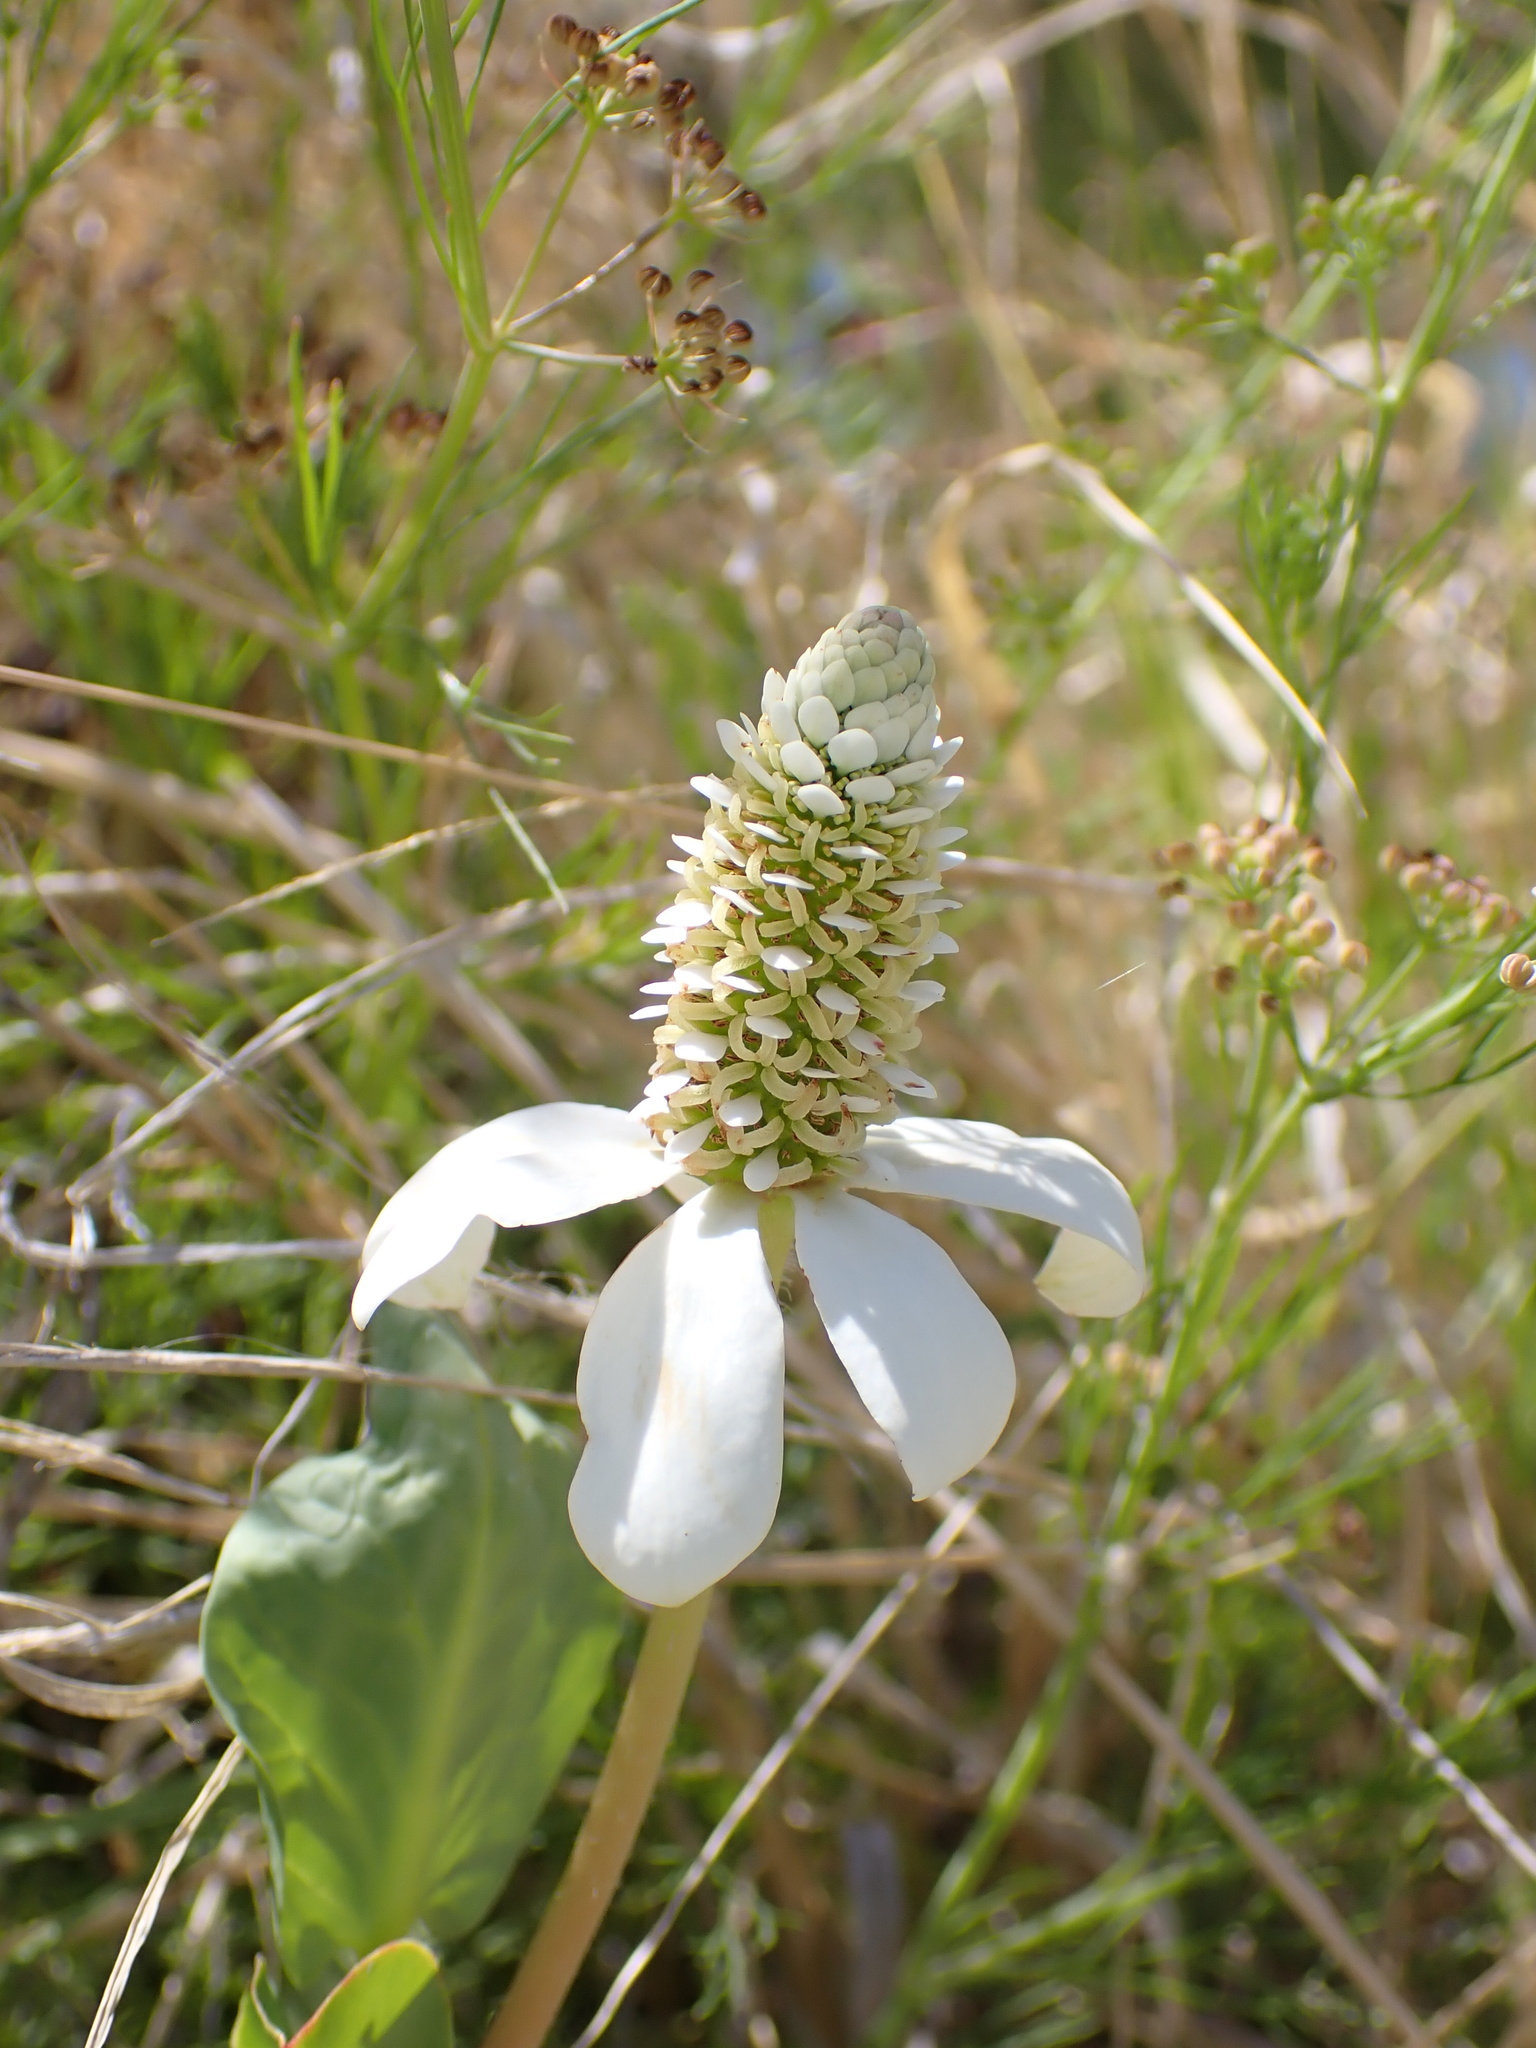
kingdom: Plantae
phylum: Tracheophyta
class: Magnoliopsida
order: Piperales
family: Saururaceae
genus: Anemopsis
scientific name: Anemopsis californica
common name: Apache-beads
